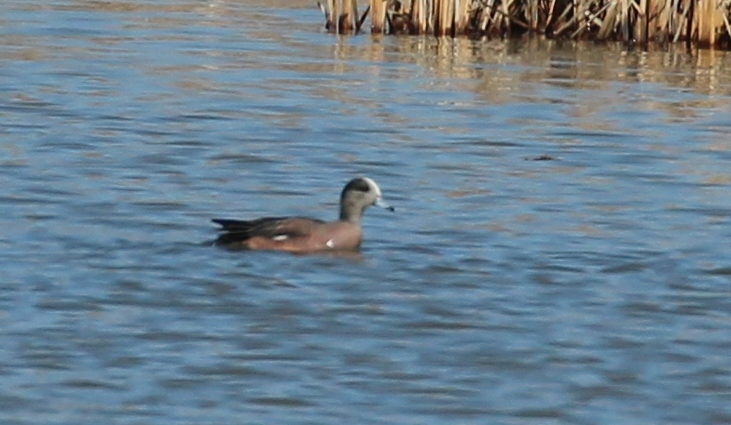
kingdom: Animalia
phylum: Chordata
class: Aves
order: Anseriformes
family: Anatidae
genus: Mareca
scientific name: Mareca americana
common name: American wigeon
